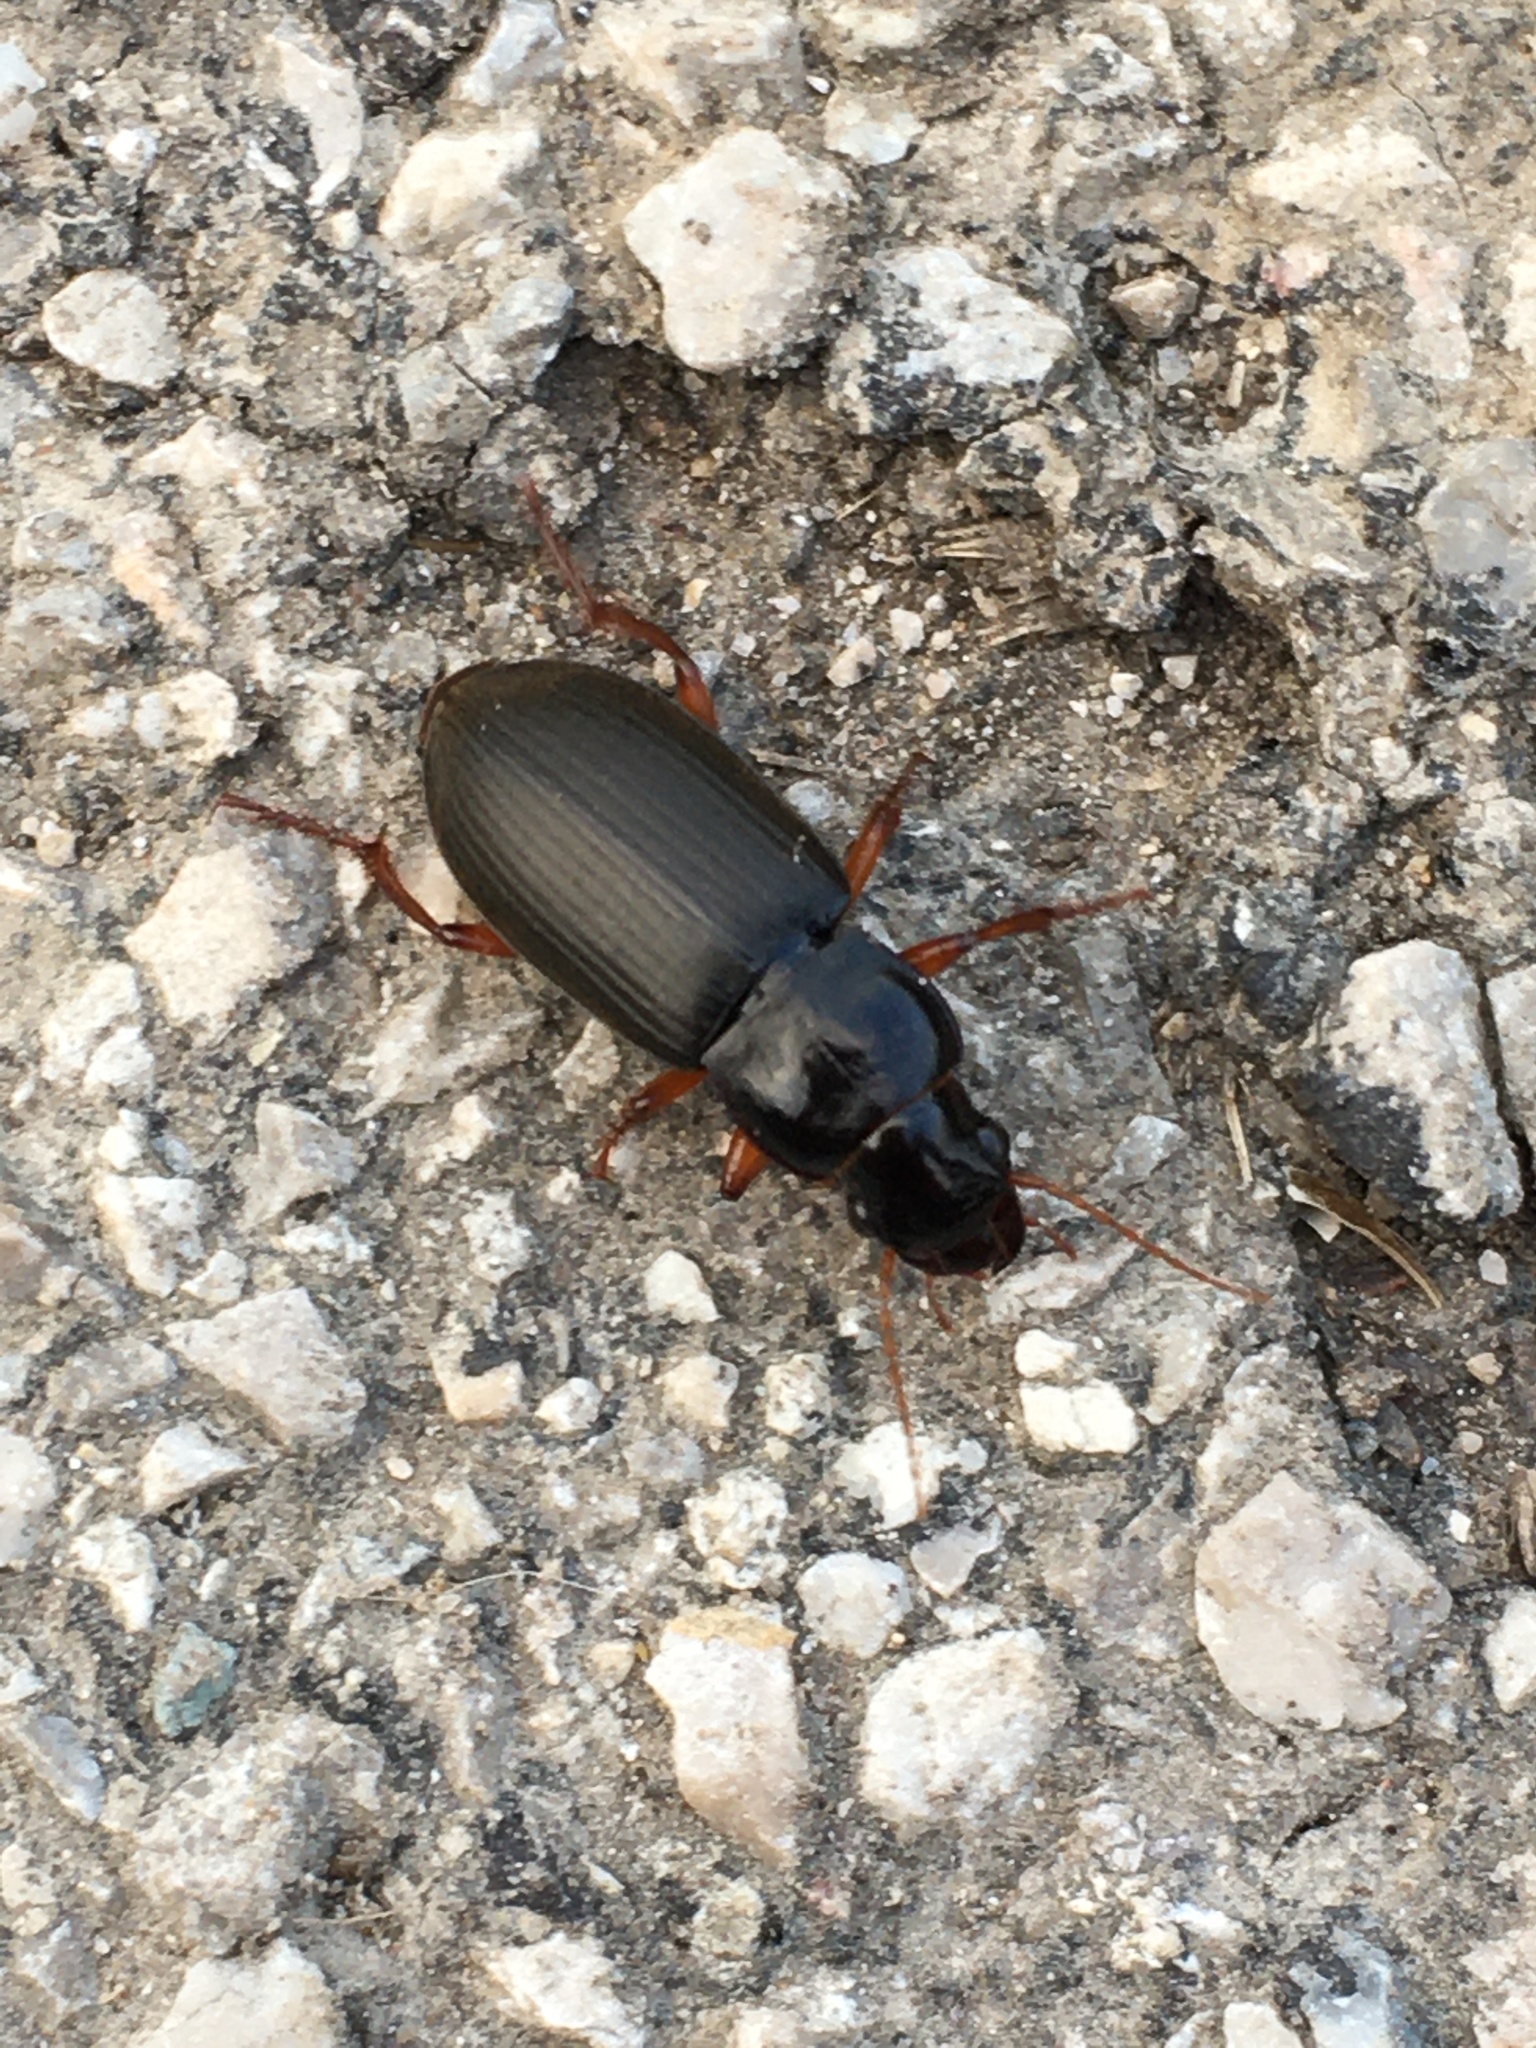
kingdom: Animalia
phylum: Arthropoda
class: Insecta
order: Coleoptera
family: Carabidae
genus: Harpalus
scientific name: Harpalus rufipes
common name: Strawberry harp ground beetle
